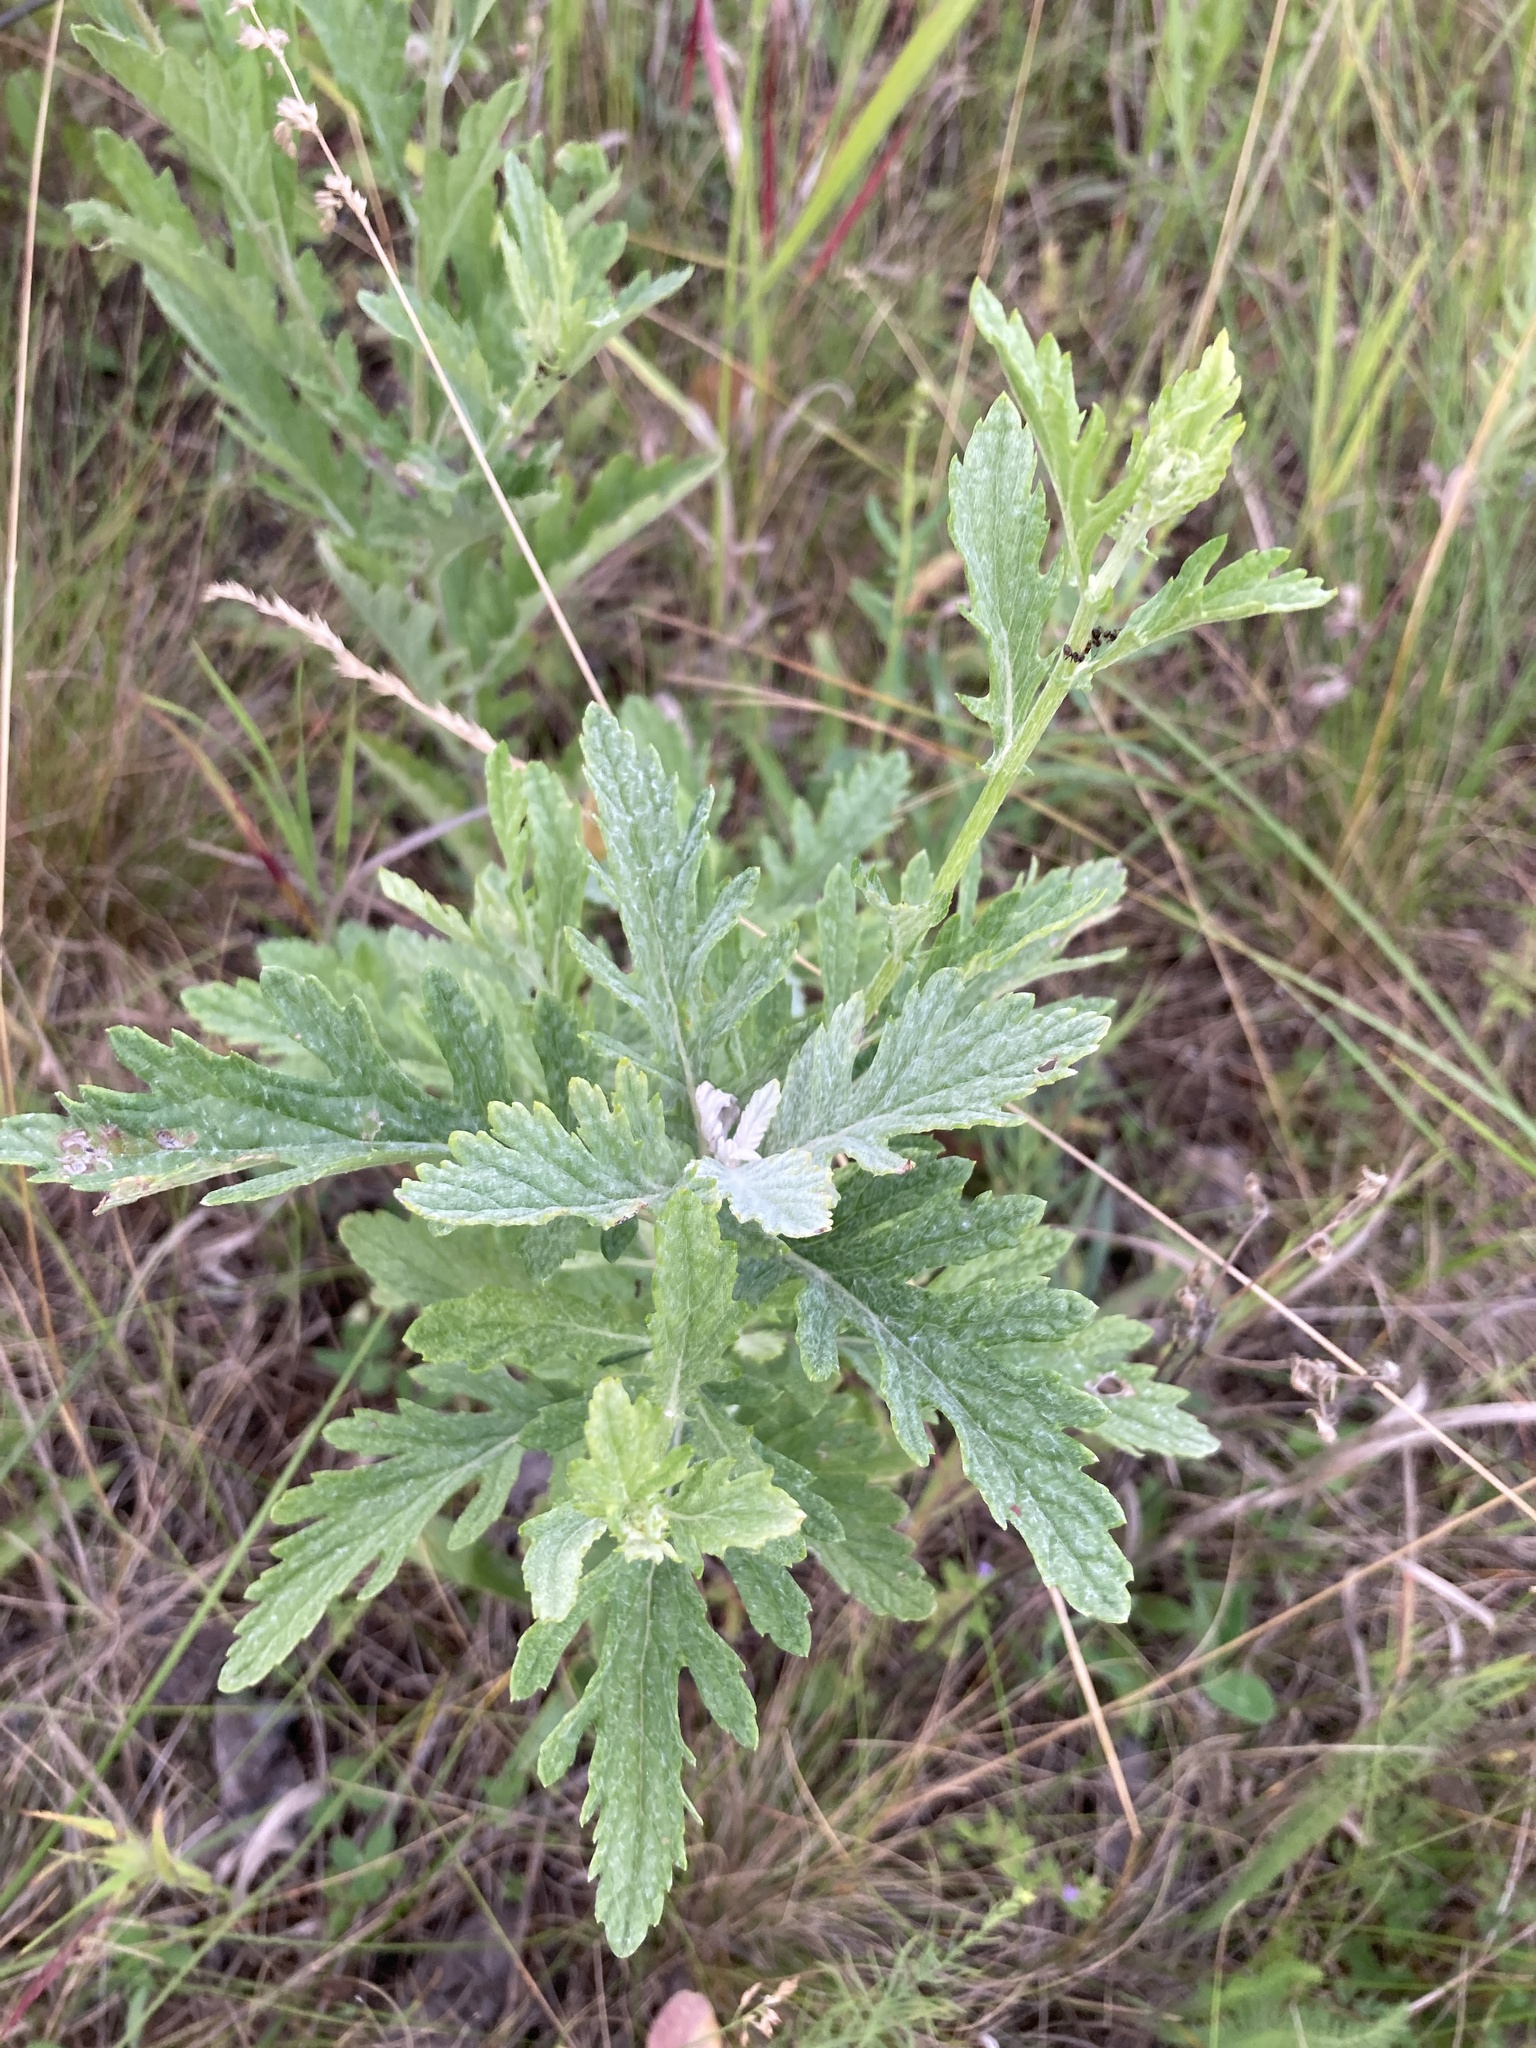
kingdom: Plantae
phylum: Tracheophyta
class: Magnoliopsida
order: Asterales
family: Asteraceae
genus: Jacobaea
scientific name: Jacobaea erucifolia
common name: Hoary ragwort
